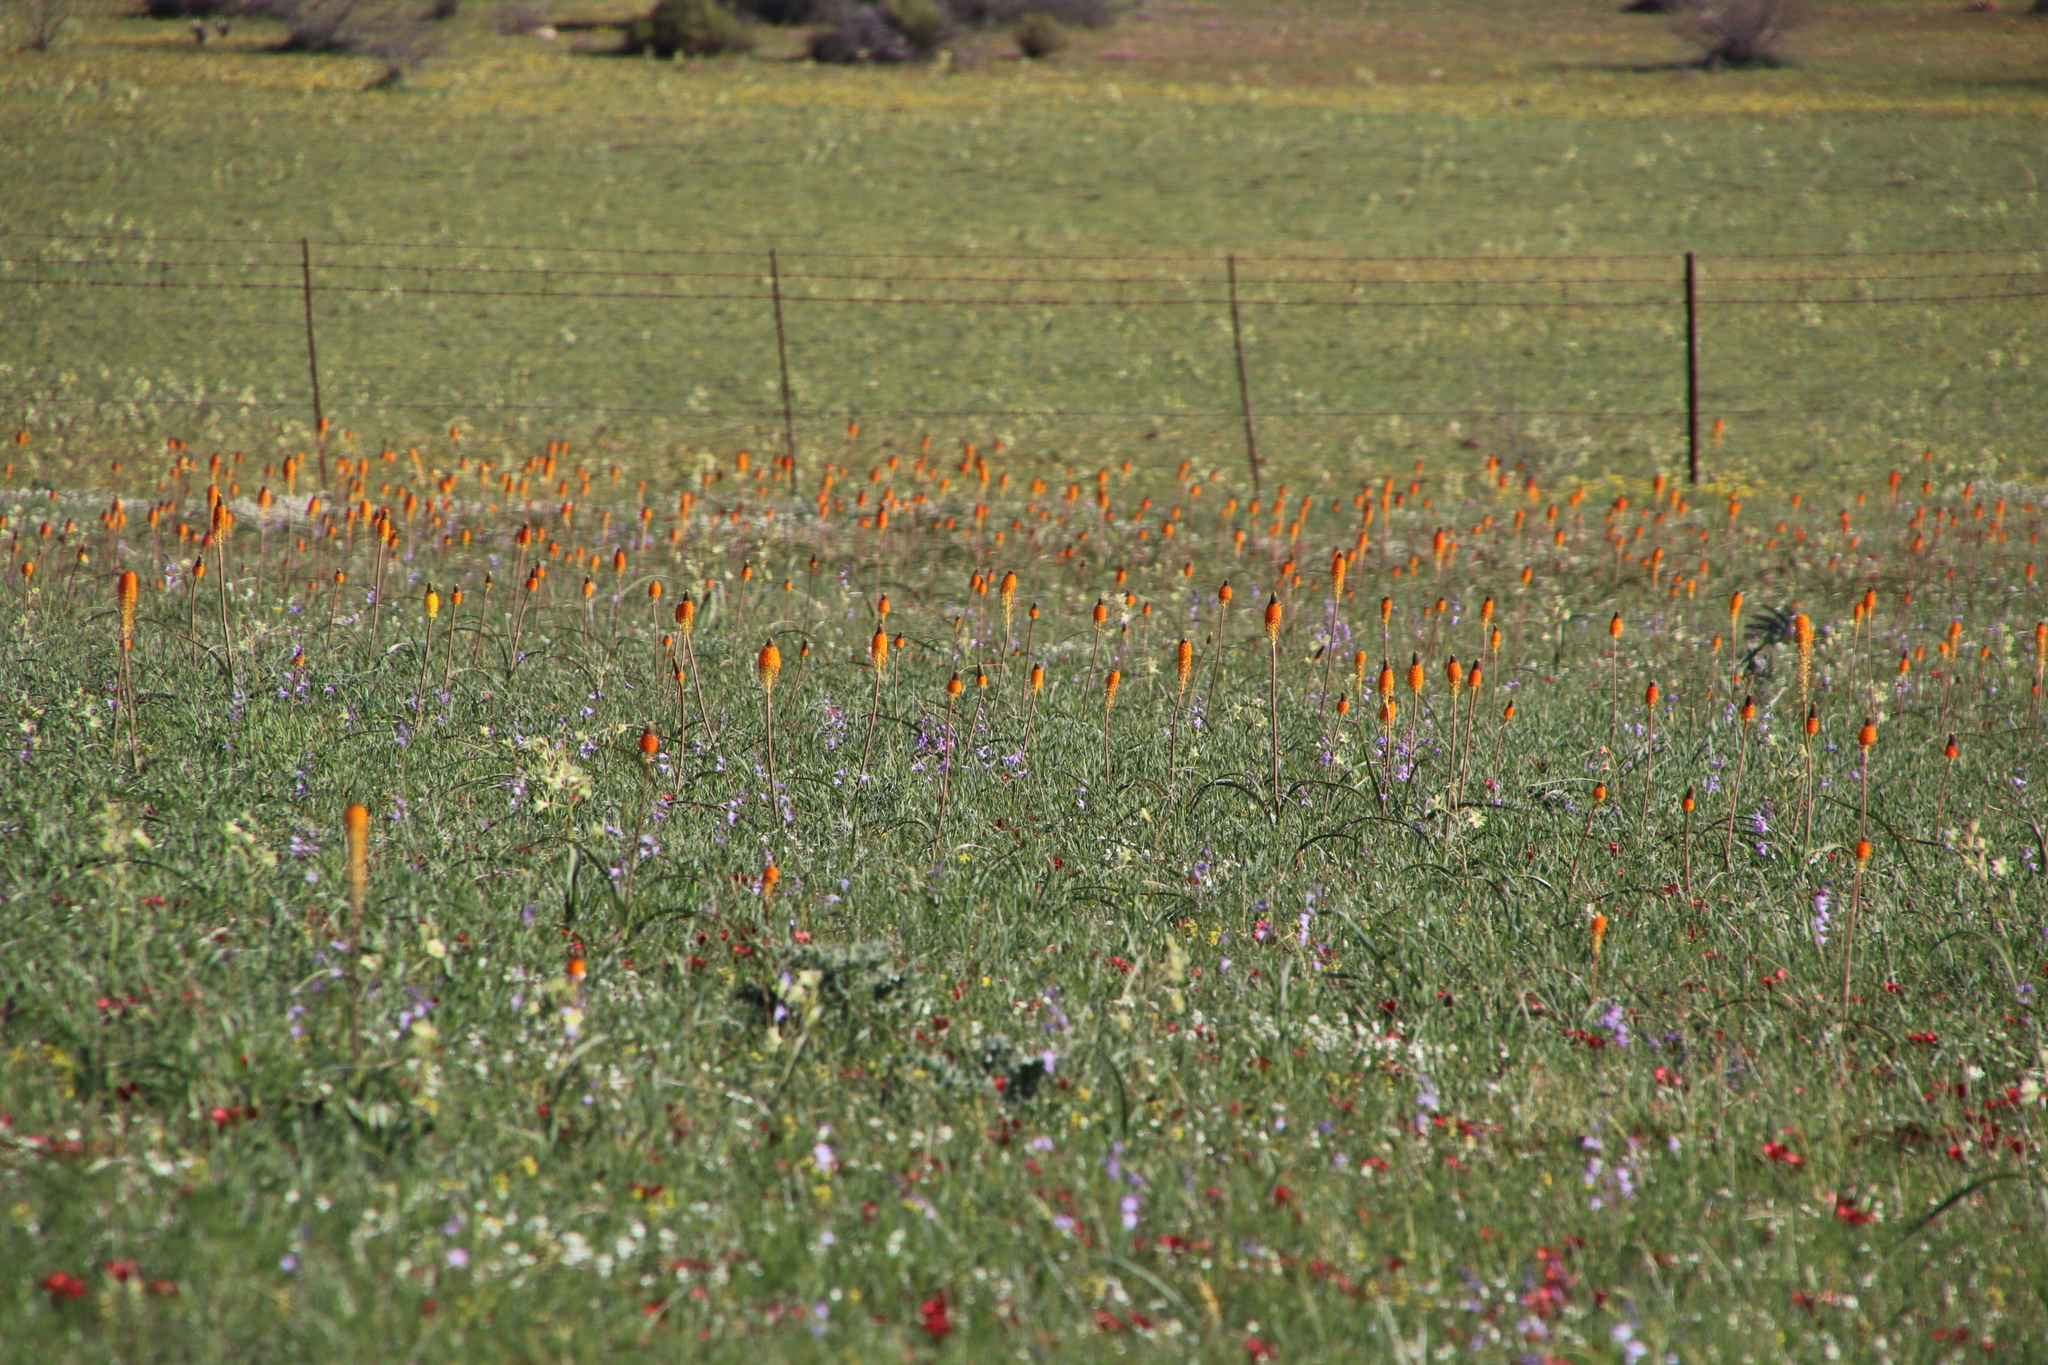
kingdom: Plantae
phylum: Tracheophyta
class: Liliopsida
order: Asparagales
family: Asphodelaceae
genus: Bulbinella
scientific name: Bulbinella latifolia
